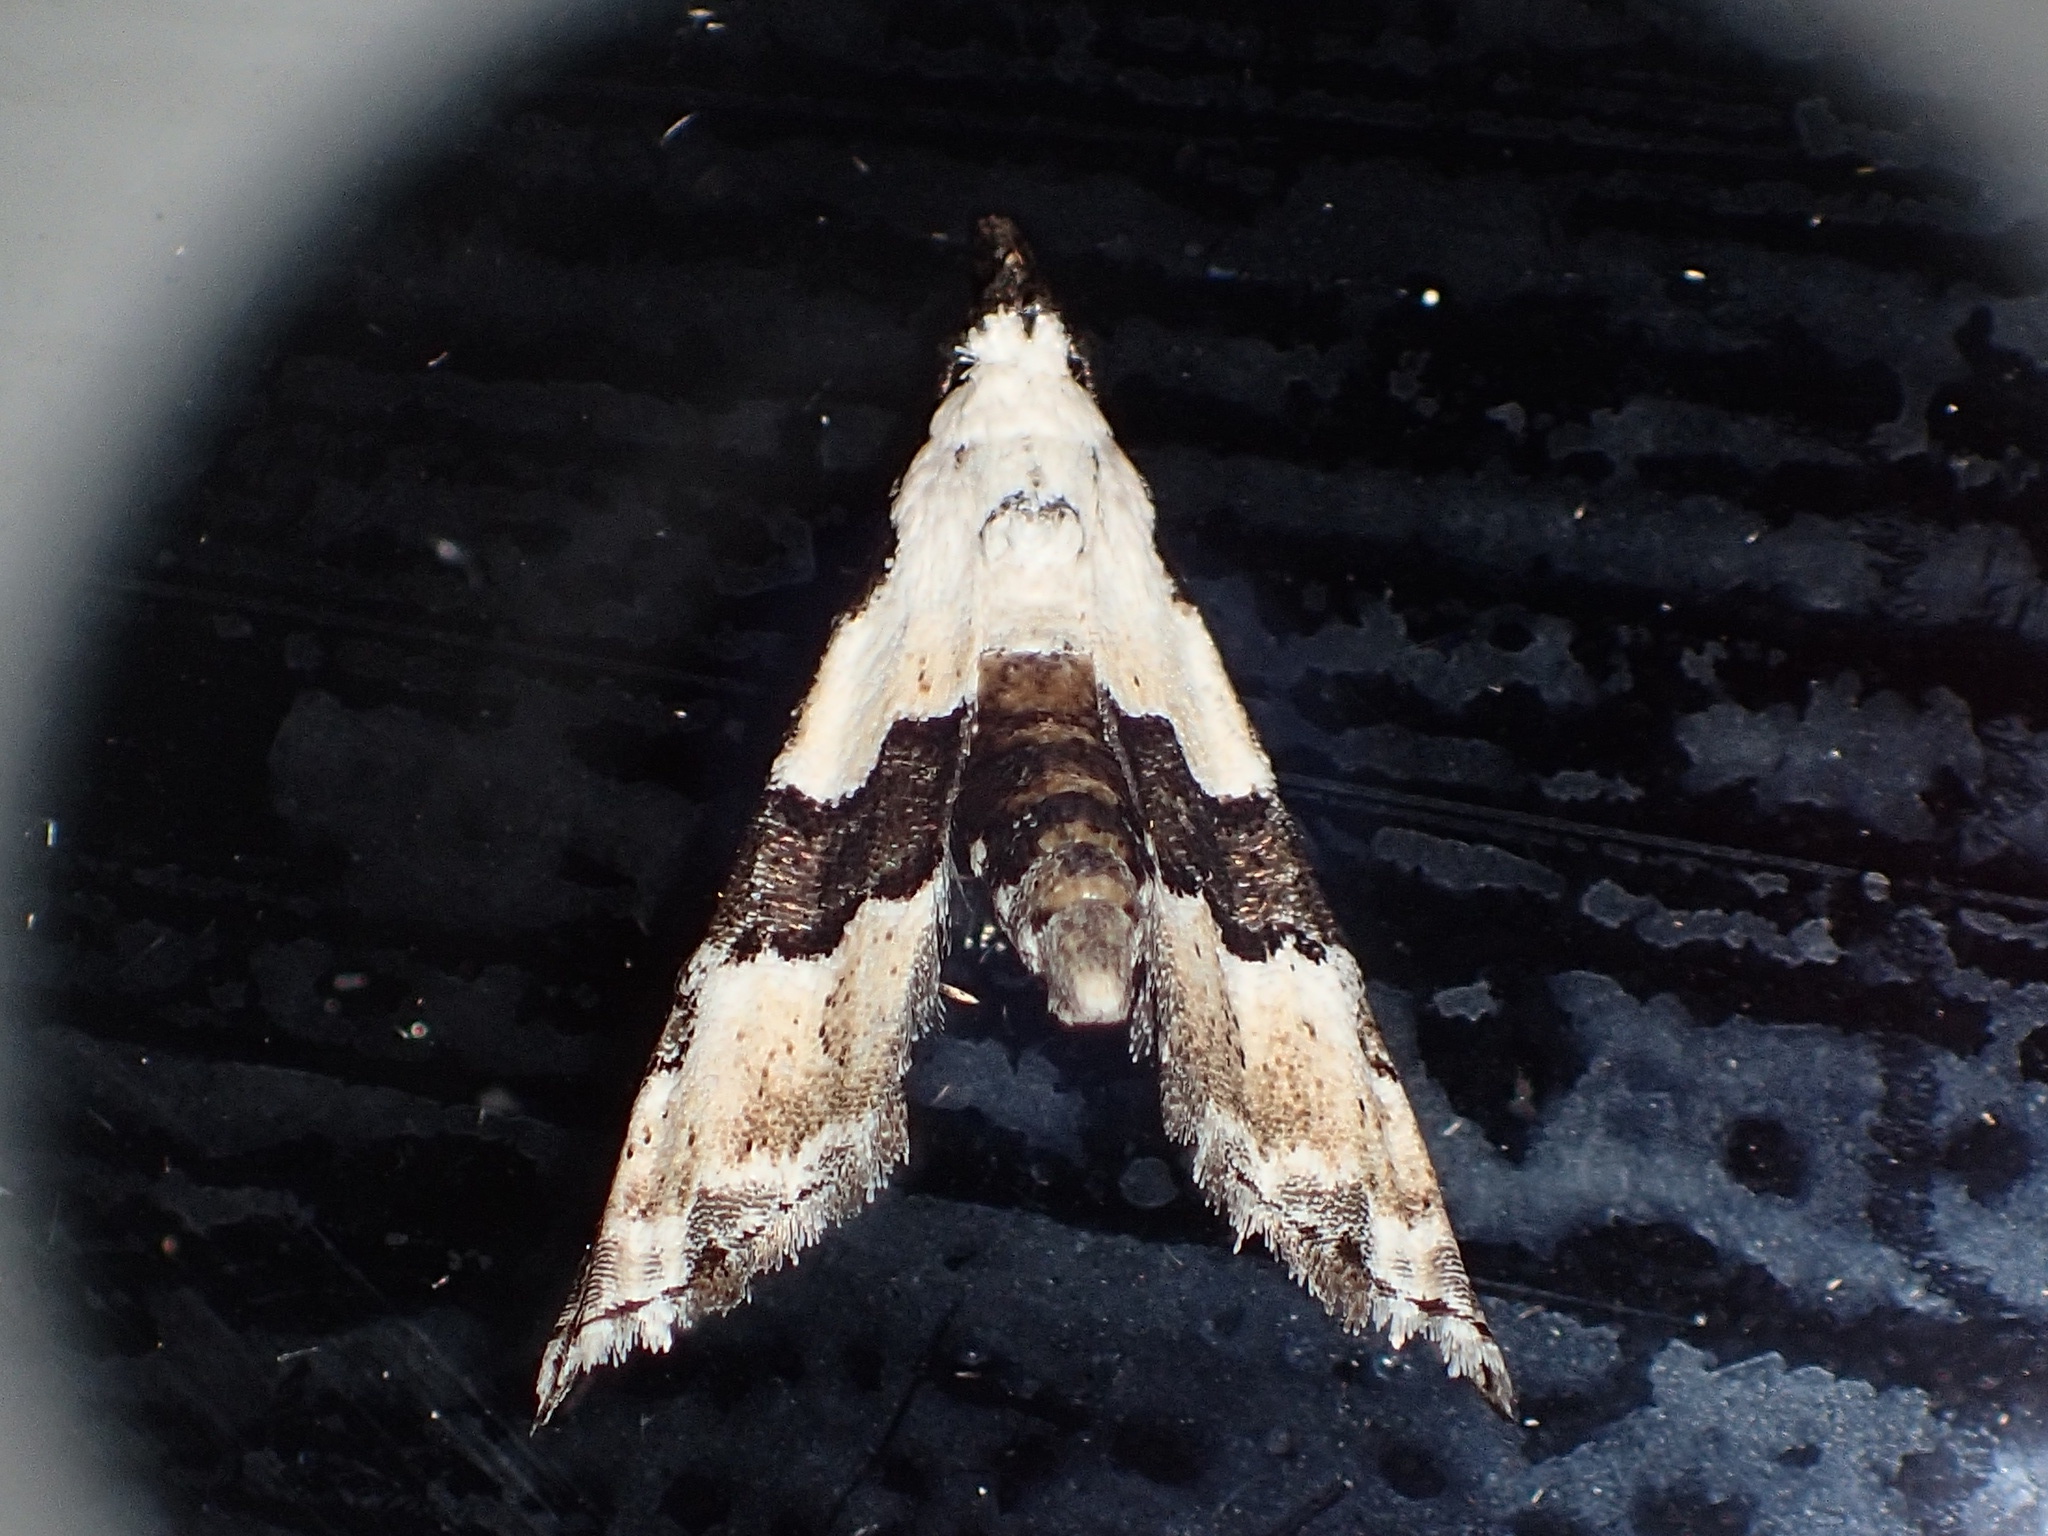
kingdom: Animalia
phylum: Arthropoda
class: Insecta
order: Lepidoptera
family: Noctuidae
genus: Nigetia
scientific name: Nigetia formosalis
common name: Thin-winged owlet
